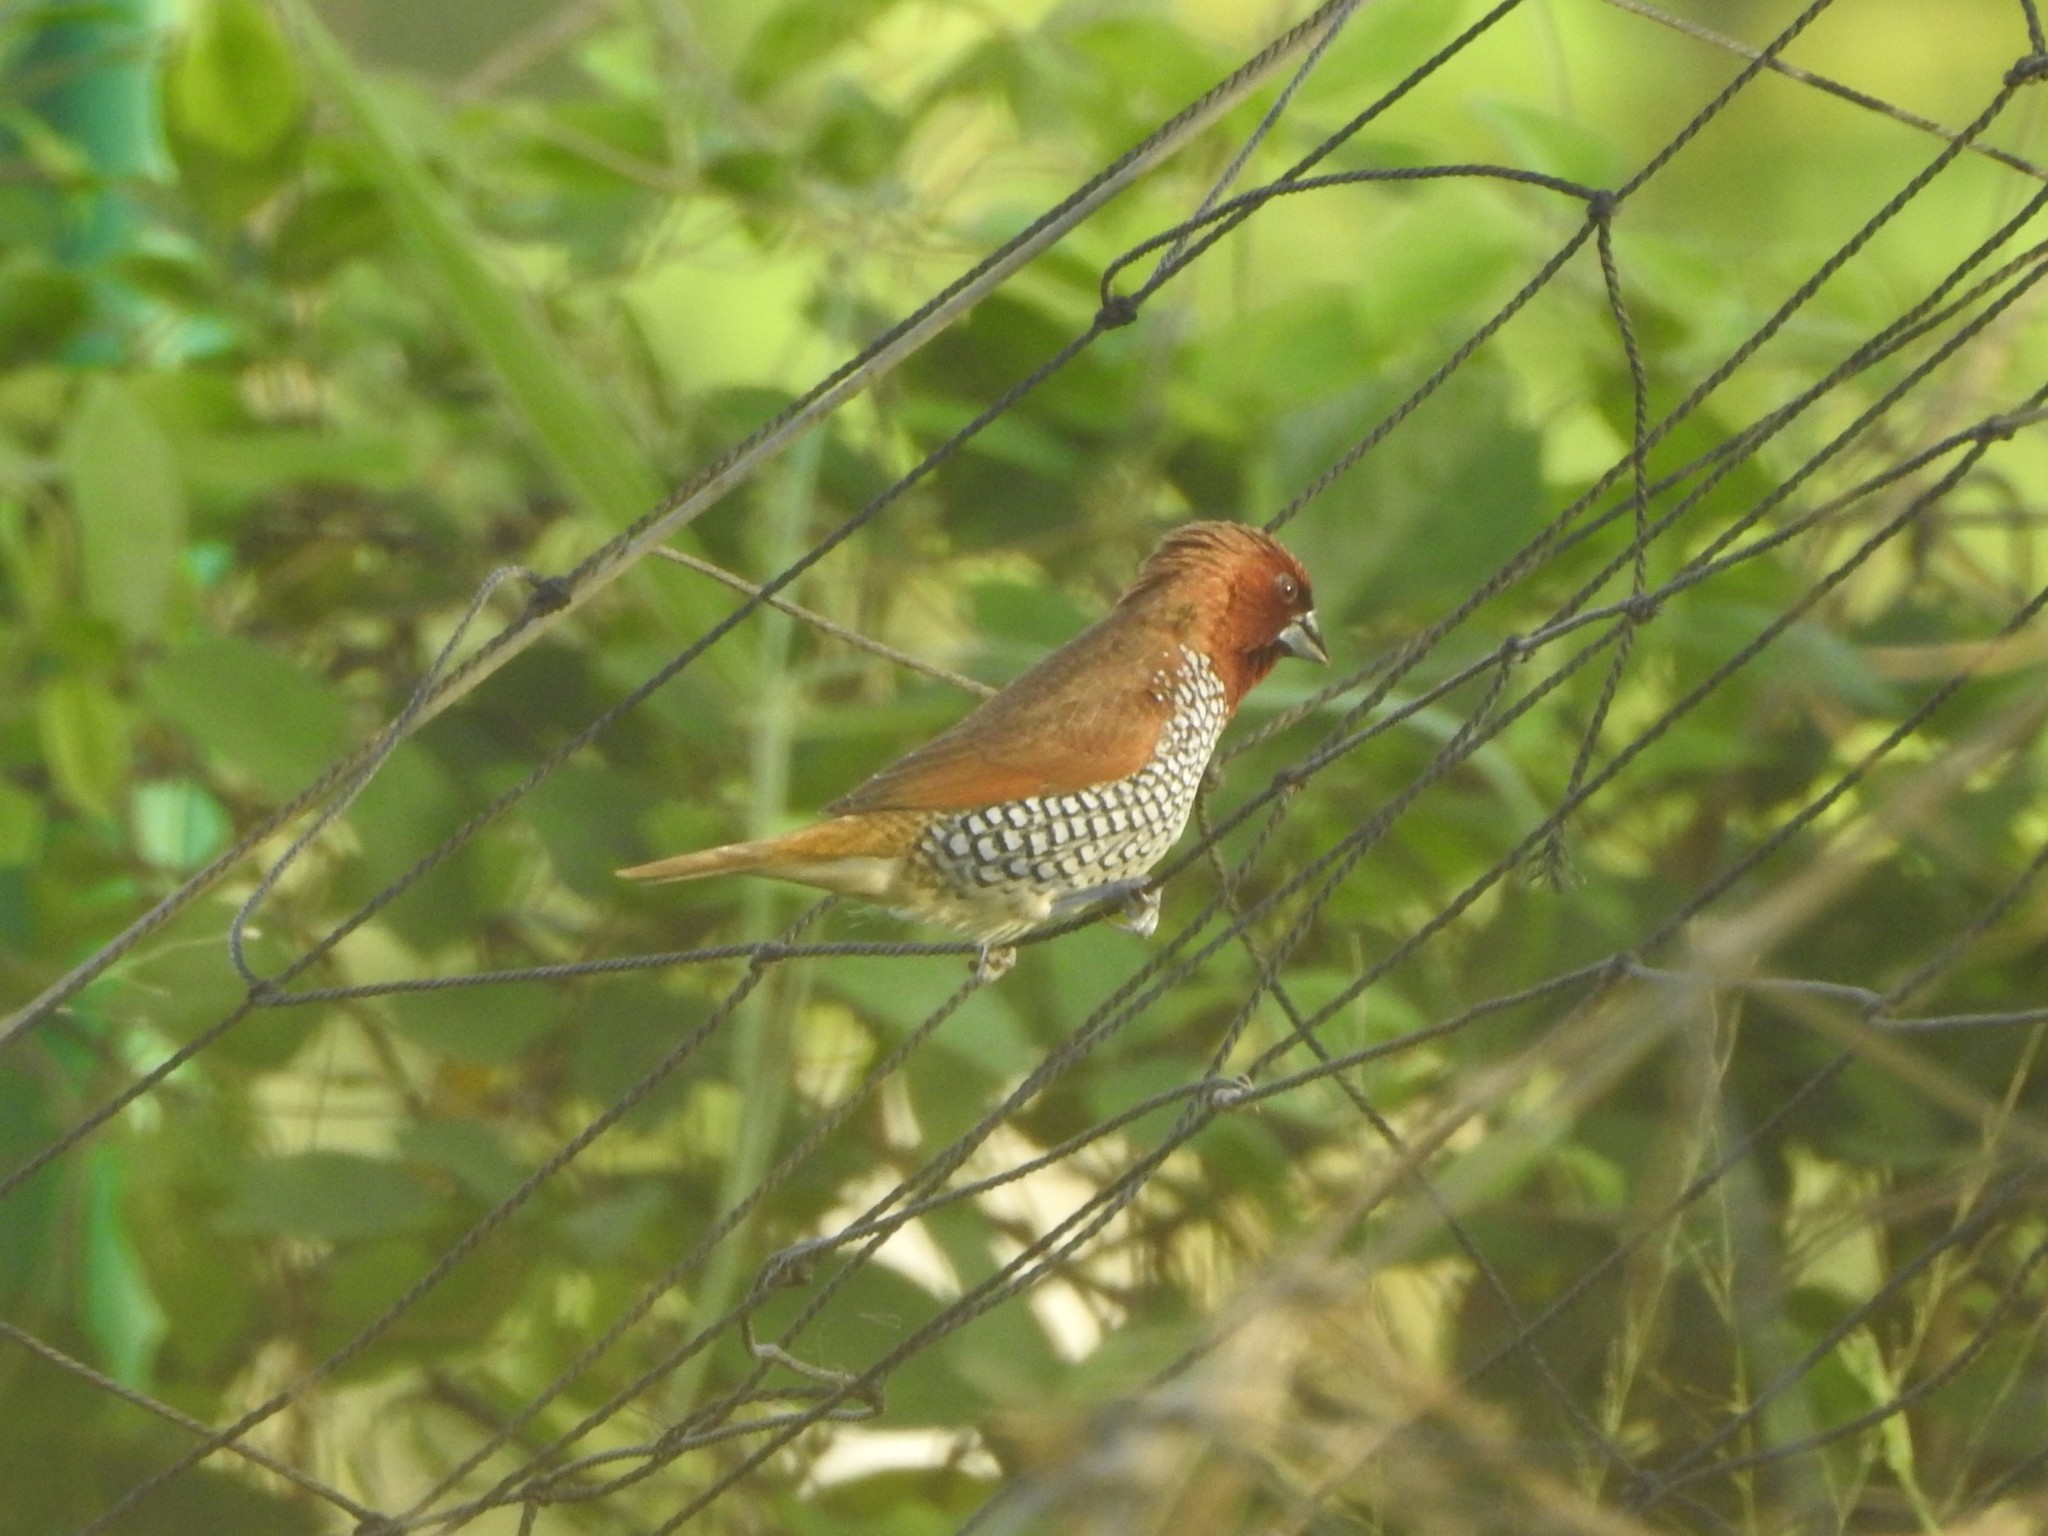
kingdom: Animalia
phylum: Chordata
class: Aves
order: Passeriformes
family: Estrildidae
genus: Lonchura
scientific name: Lonchura punctulata
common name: Scaly-breasted munia
